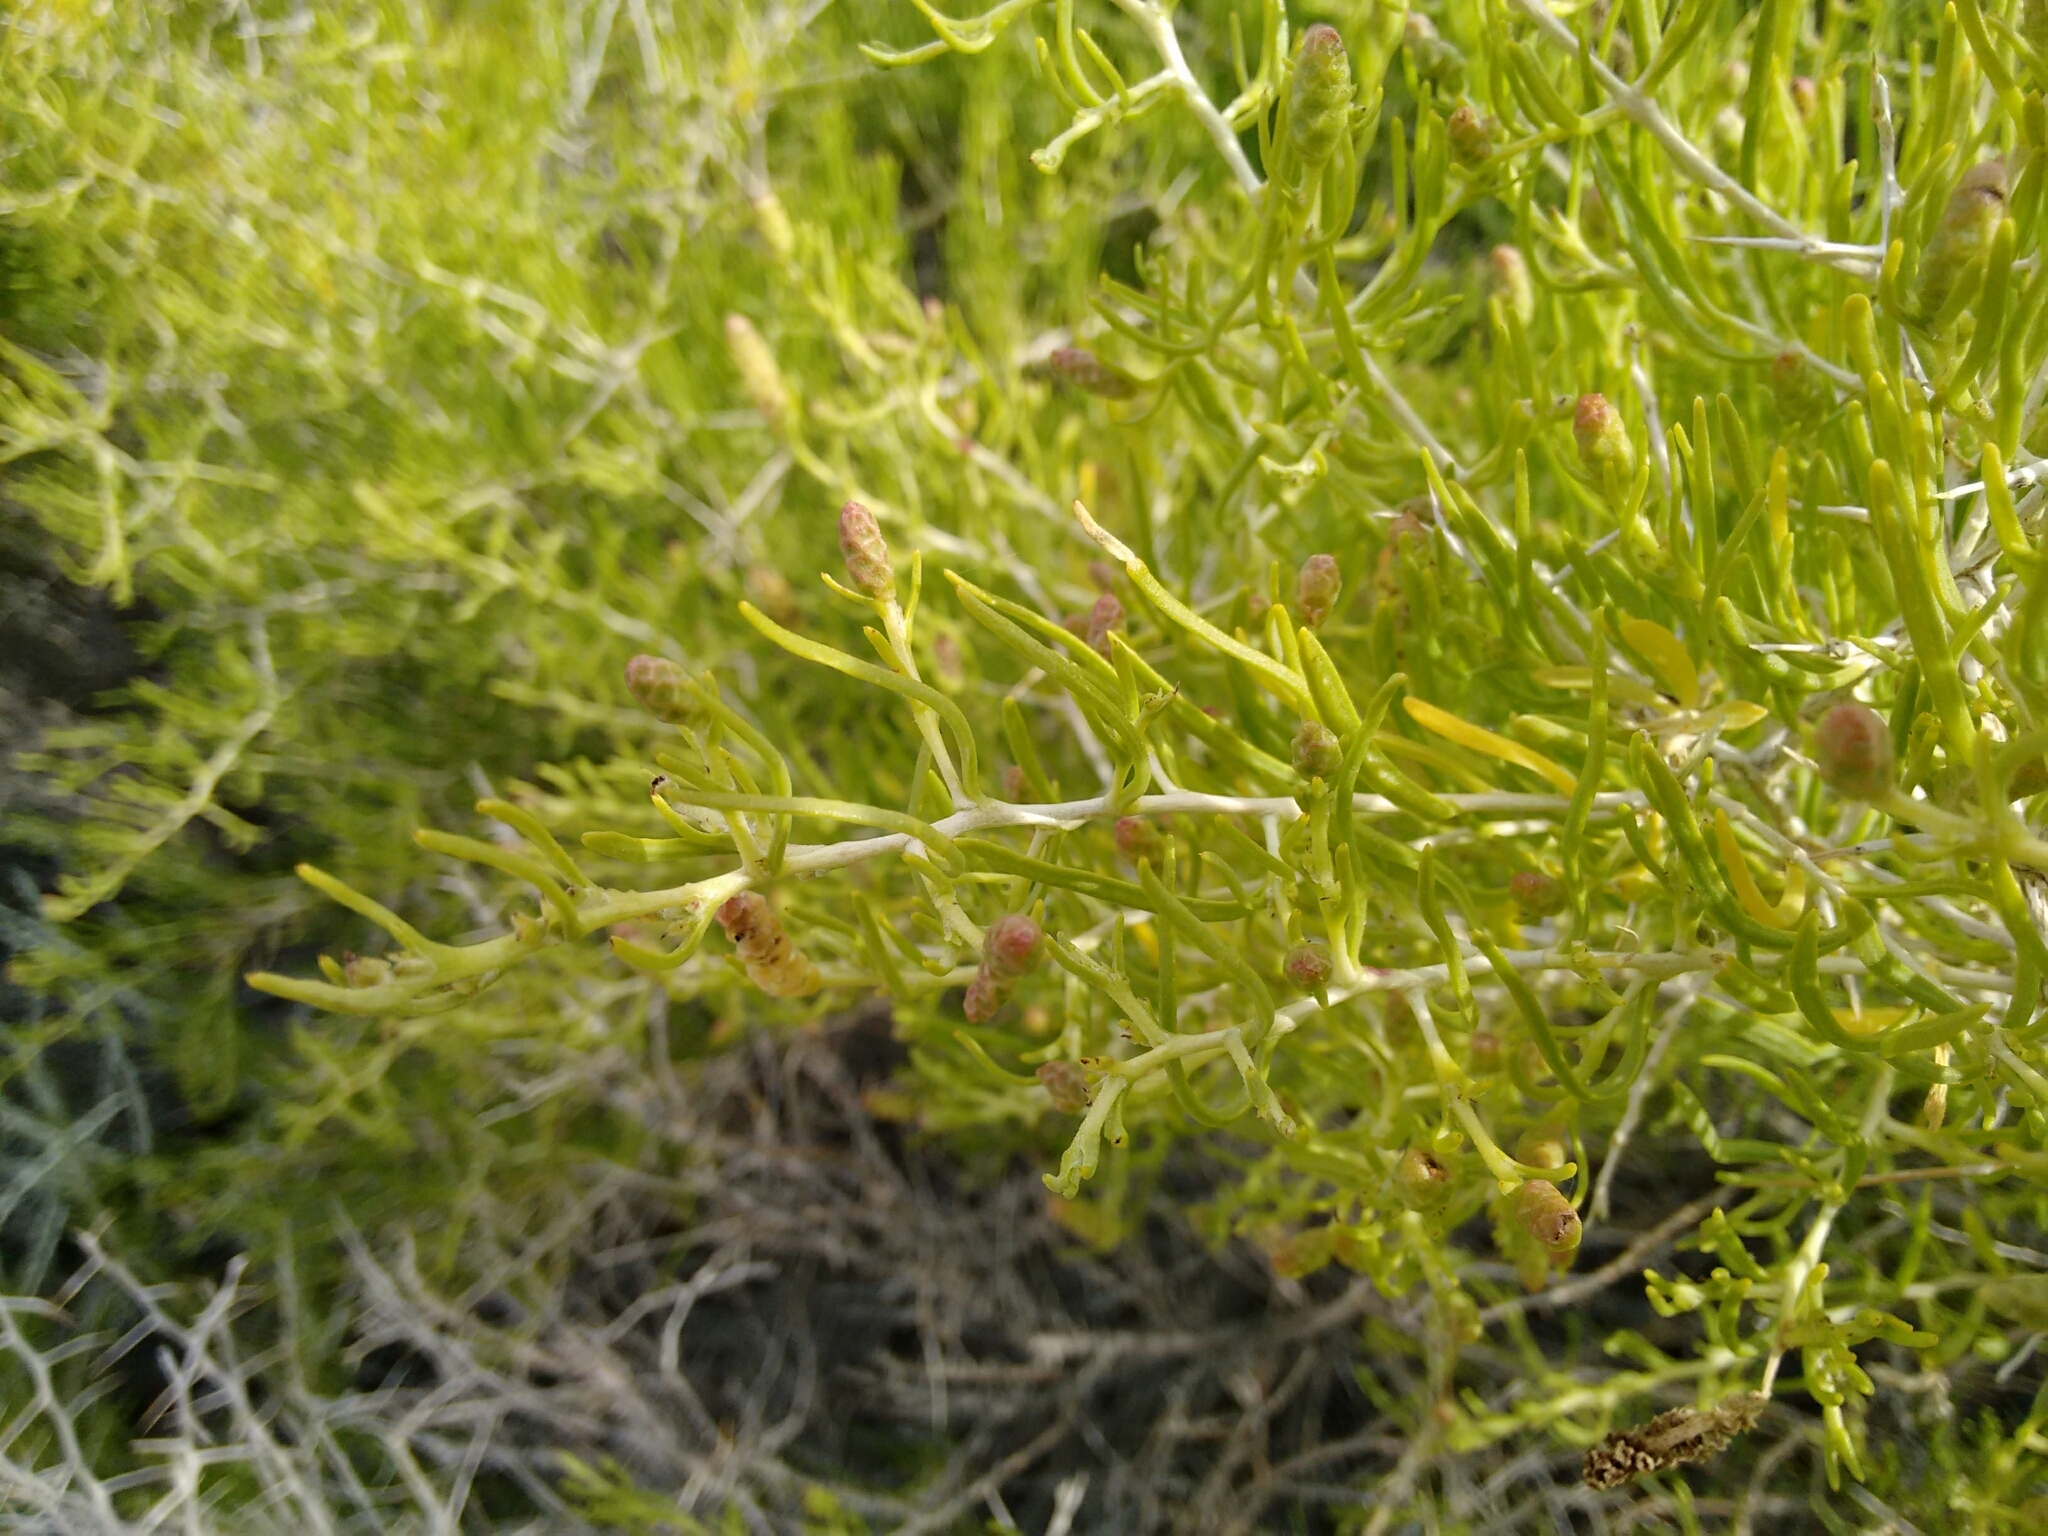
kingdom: Plantae
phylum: Tracheophyta
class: Magnoliopsida
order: Caryophyllales
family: Sarcobataceae
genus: Sarcobatus
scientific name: Sarcobatus vermiculatus
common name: Greasewood
